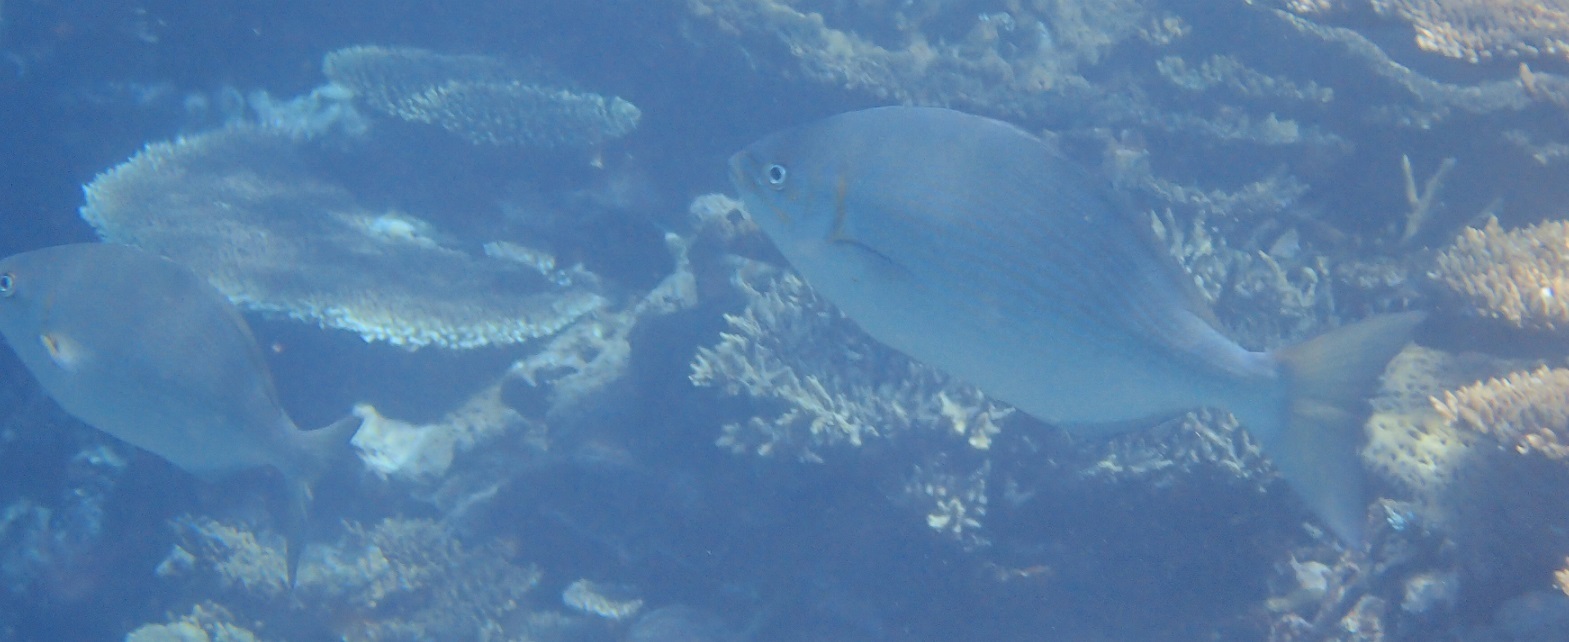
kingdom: Animalia
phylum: Chordata
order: Perciformes
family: Kyphosidae
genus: Kyphosus
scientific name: Kyphosus vaigiensis
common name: Brassy chub
